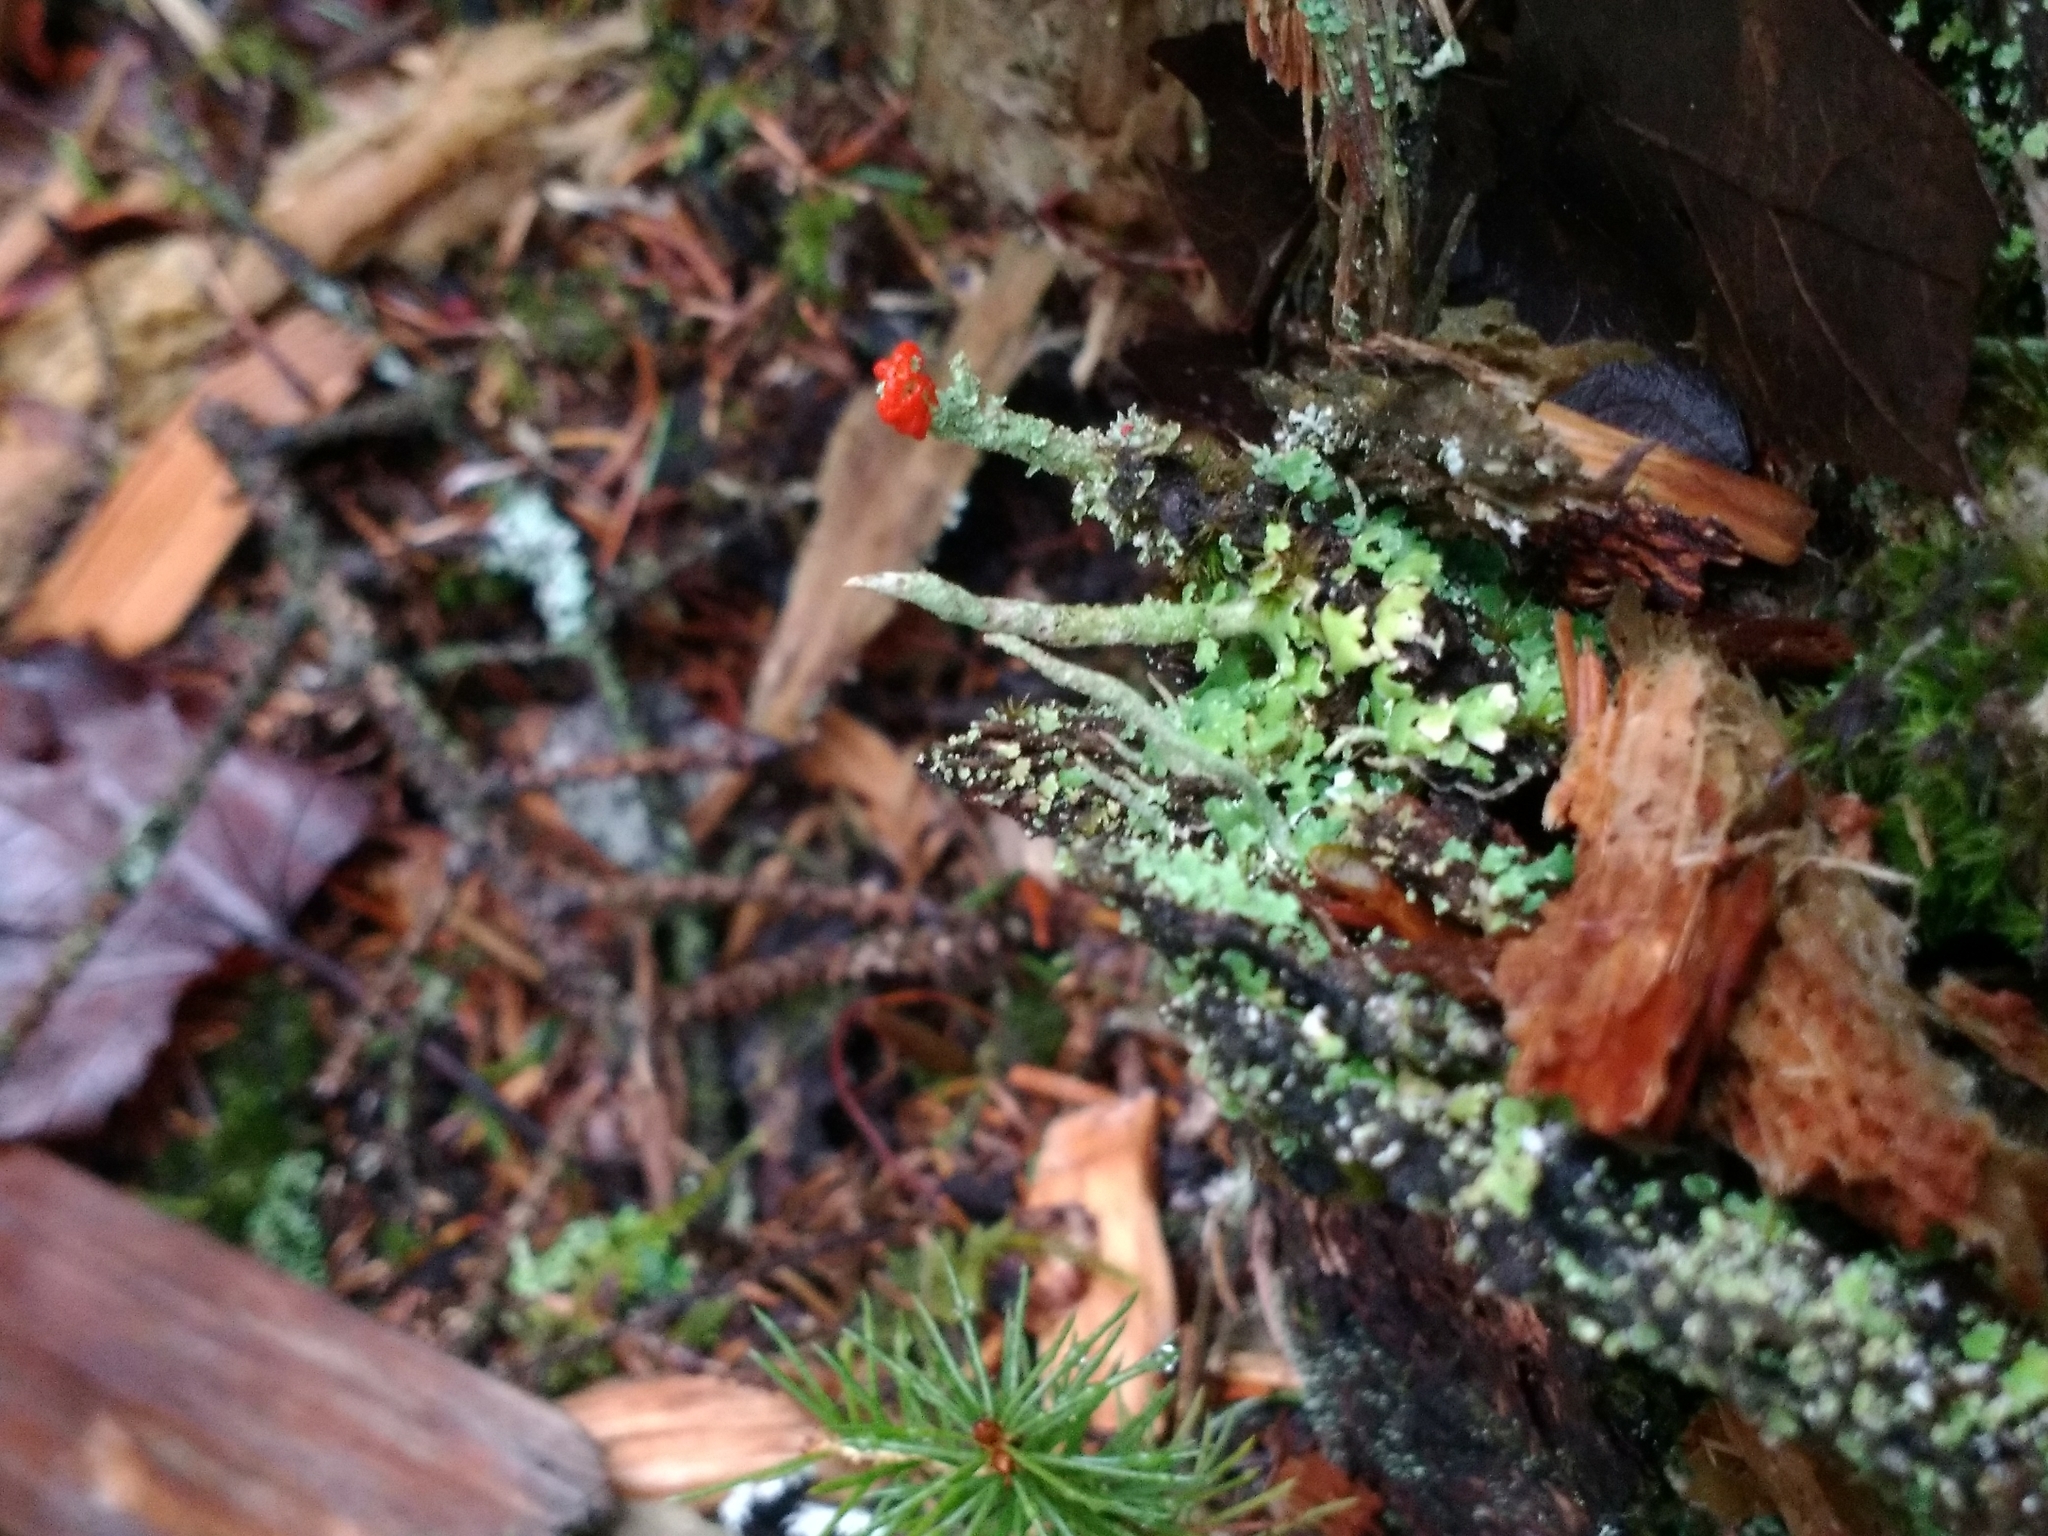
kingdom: Fungi
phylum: Ascomycota
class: Lecanoromycetes
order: Lecanorales
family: Cladoniaceae
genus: Cladonia
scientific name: Cladonia cristatella
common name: British soldier lichen
